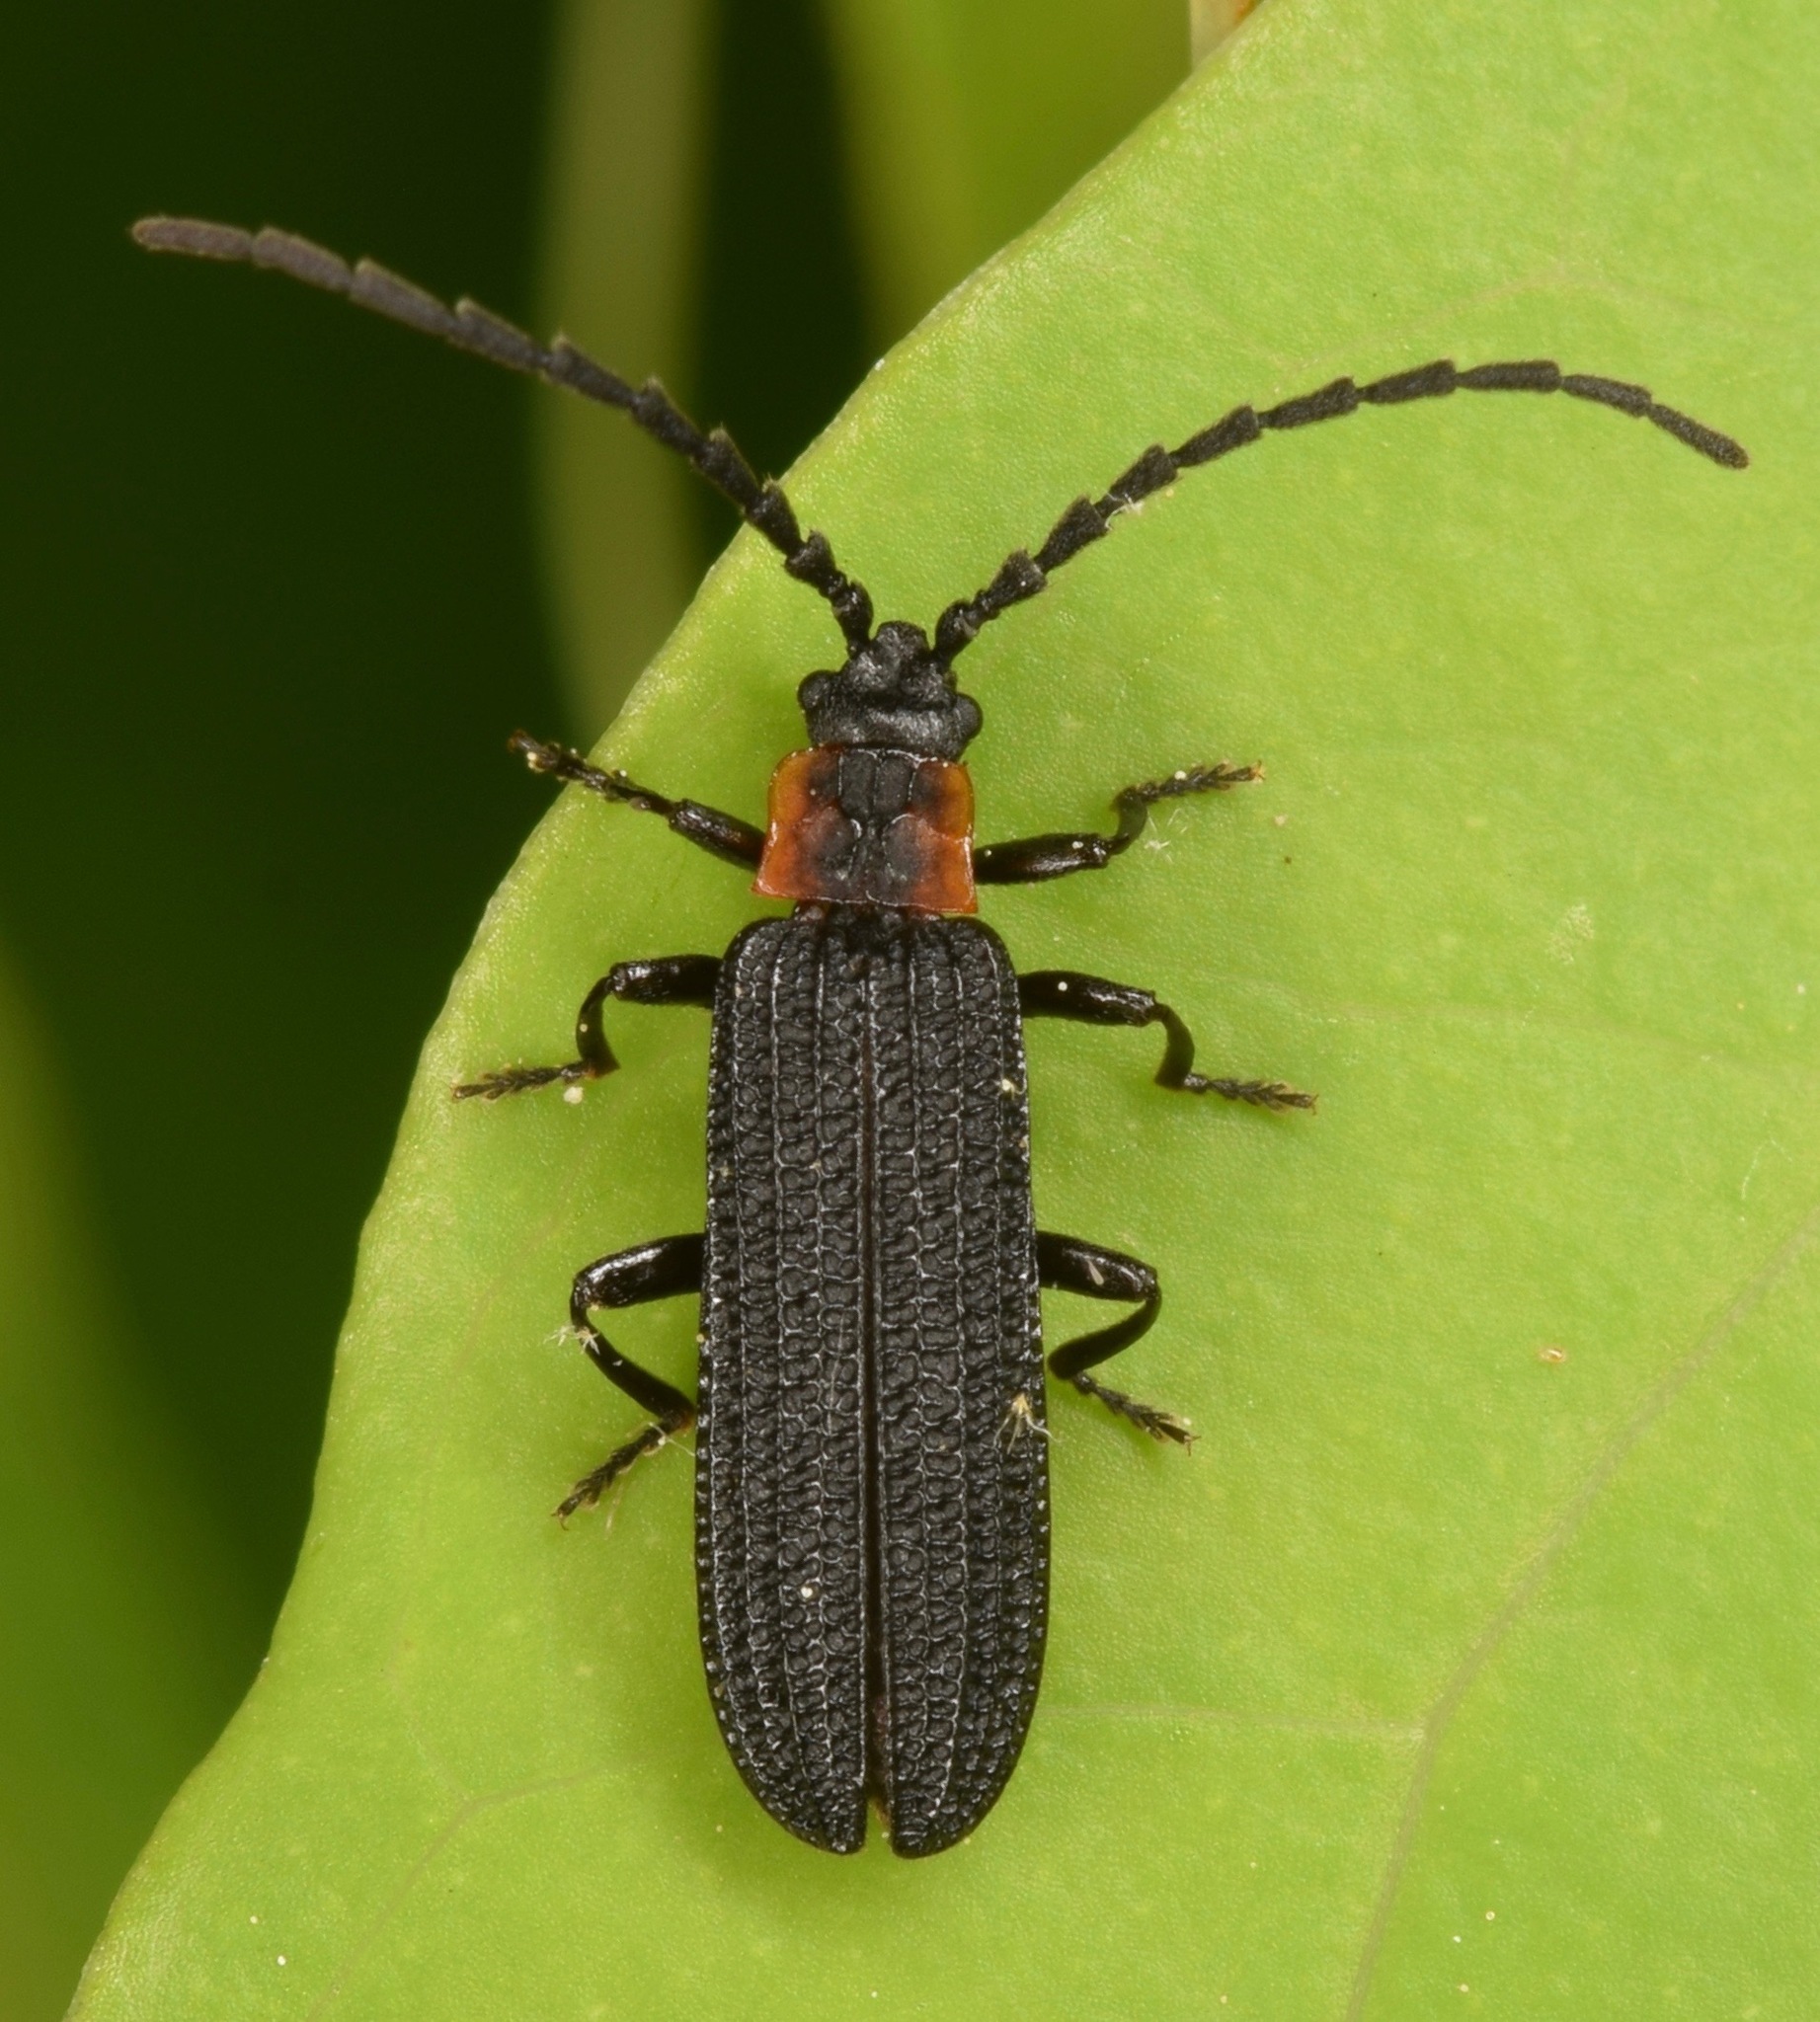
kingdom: Animalia
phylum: Arthropoda
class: Insecta
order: Coleoptera
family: Lycidae
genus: Erotides
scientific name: Erotides sculptilis
